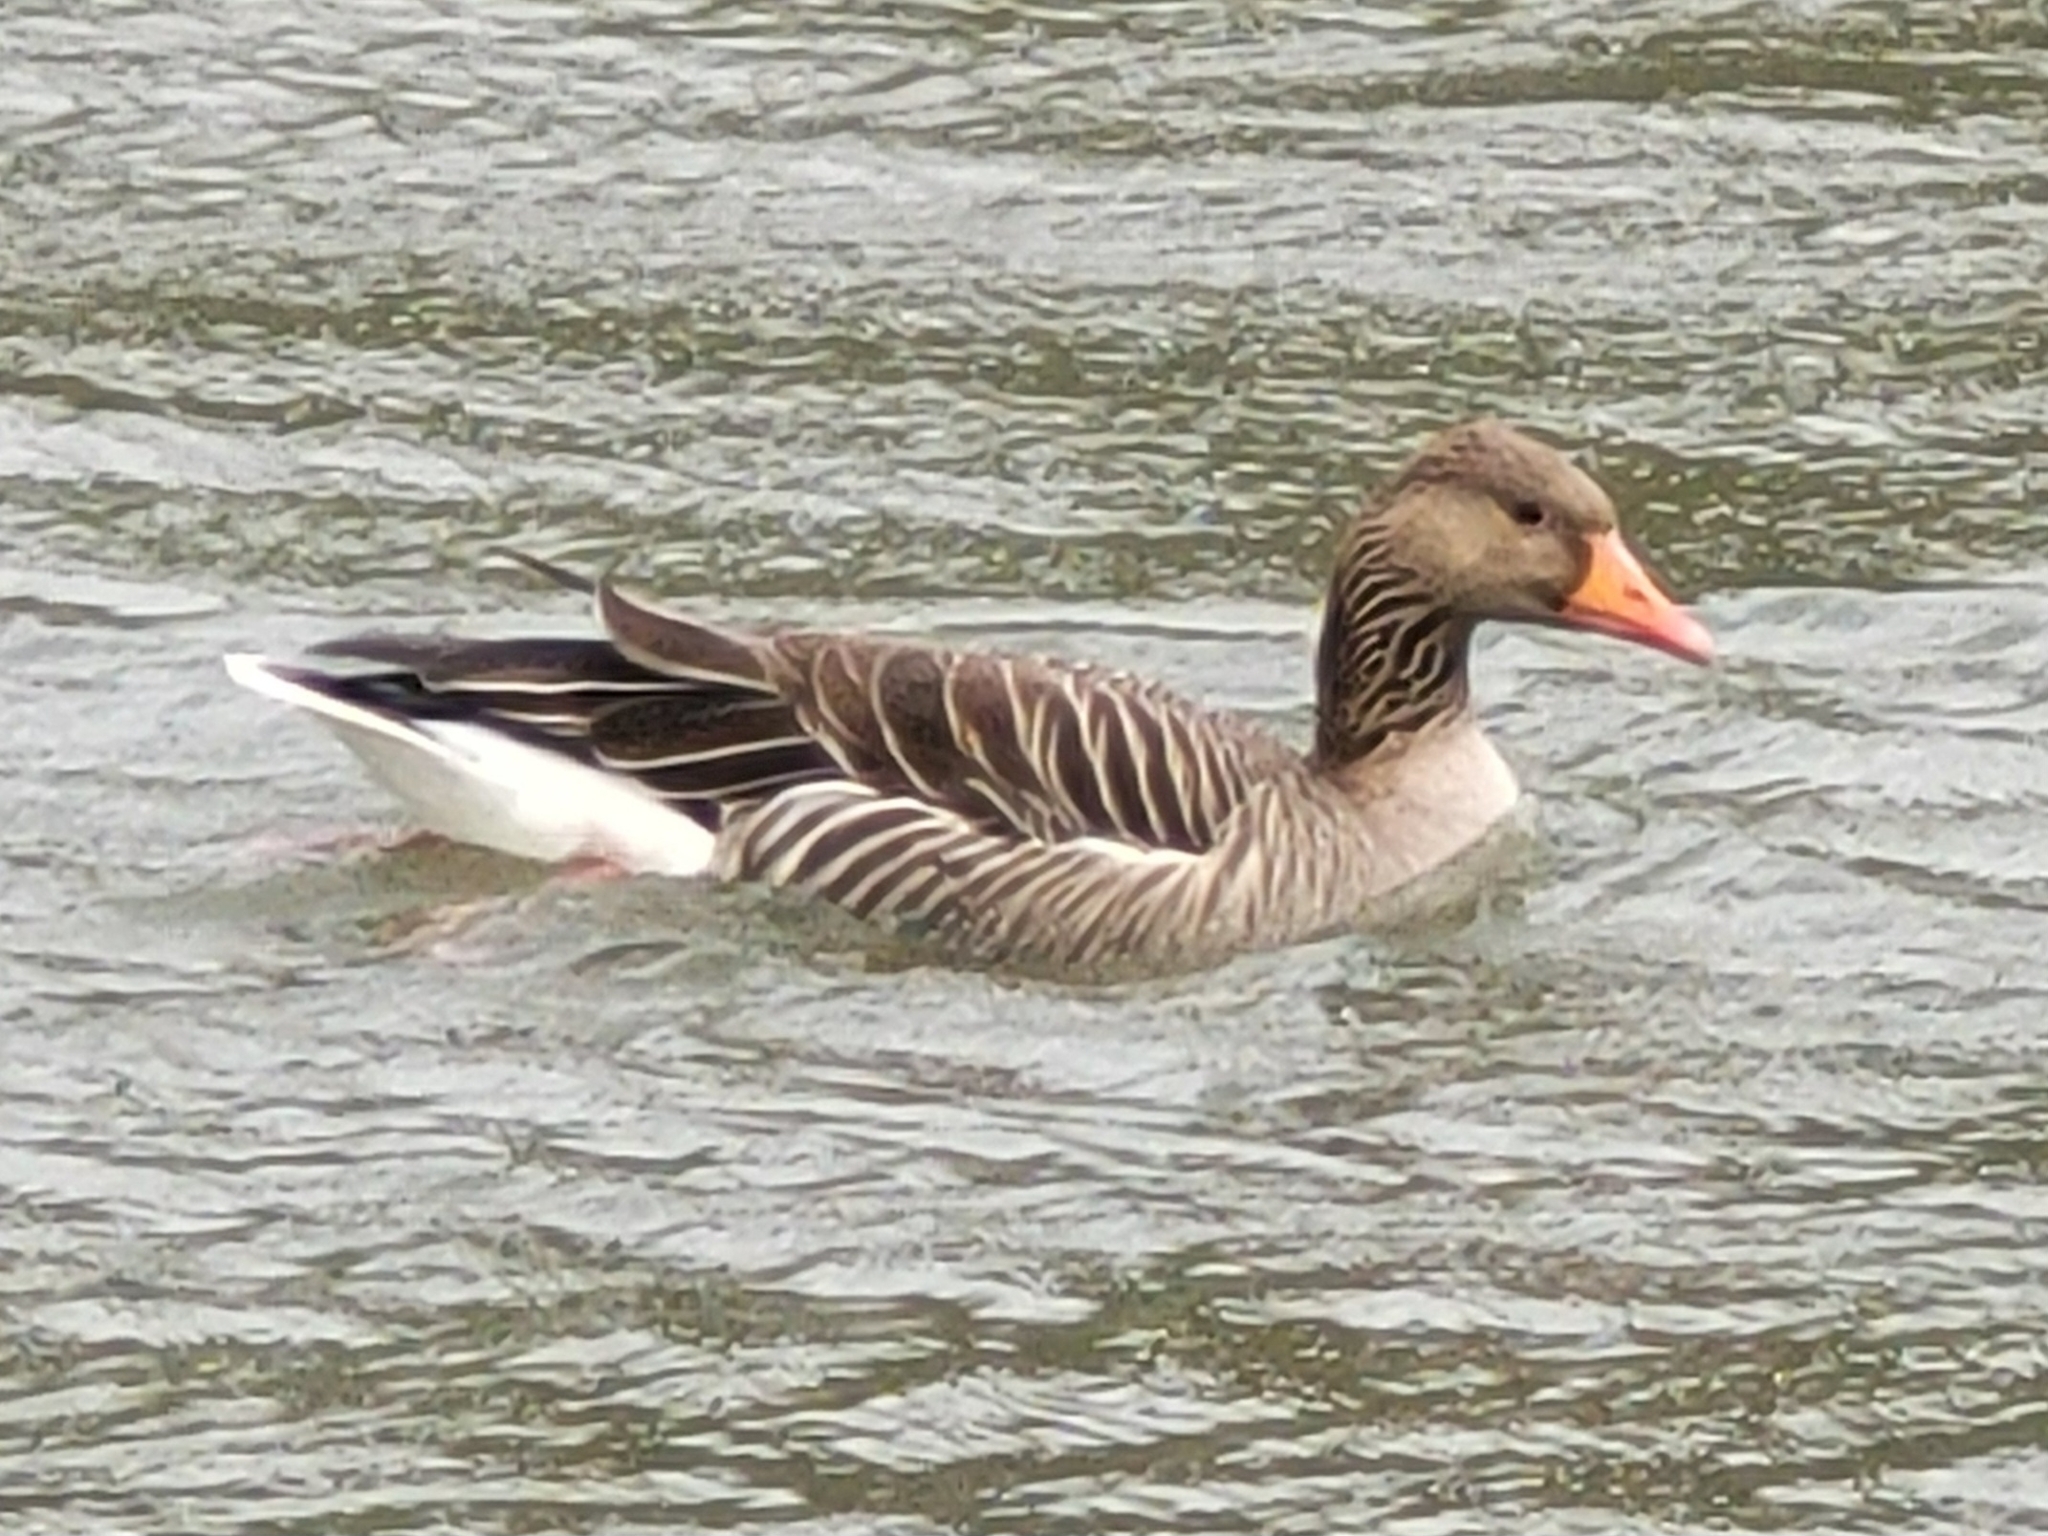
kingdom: Animalia
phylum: Chordata
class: Aves
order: Anseriformes
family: Anatidae
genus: Anser
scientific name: Anser anser
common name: Greylag goose
